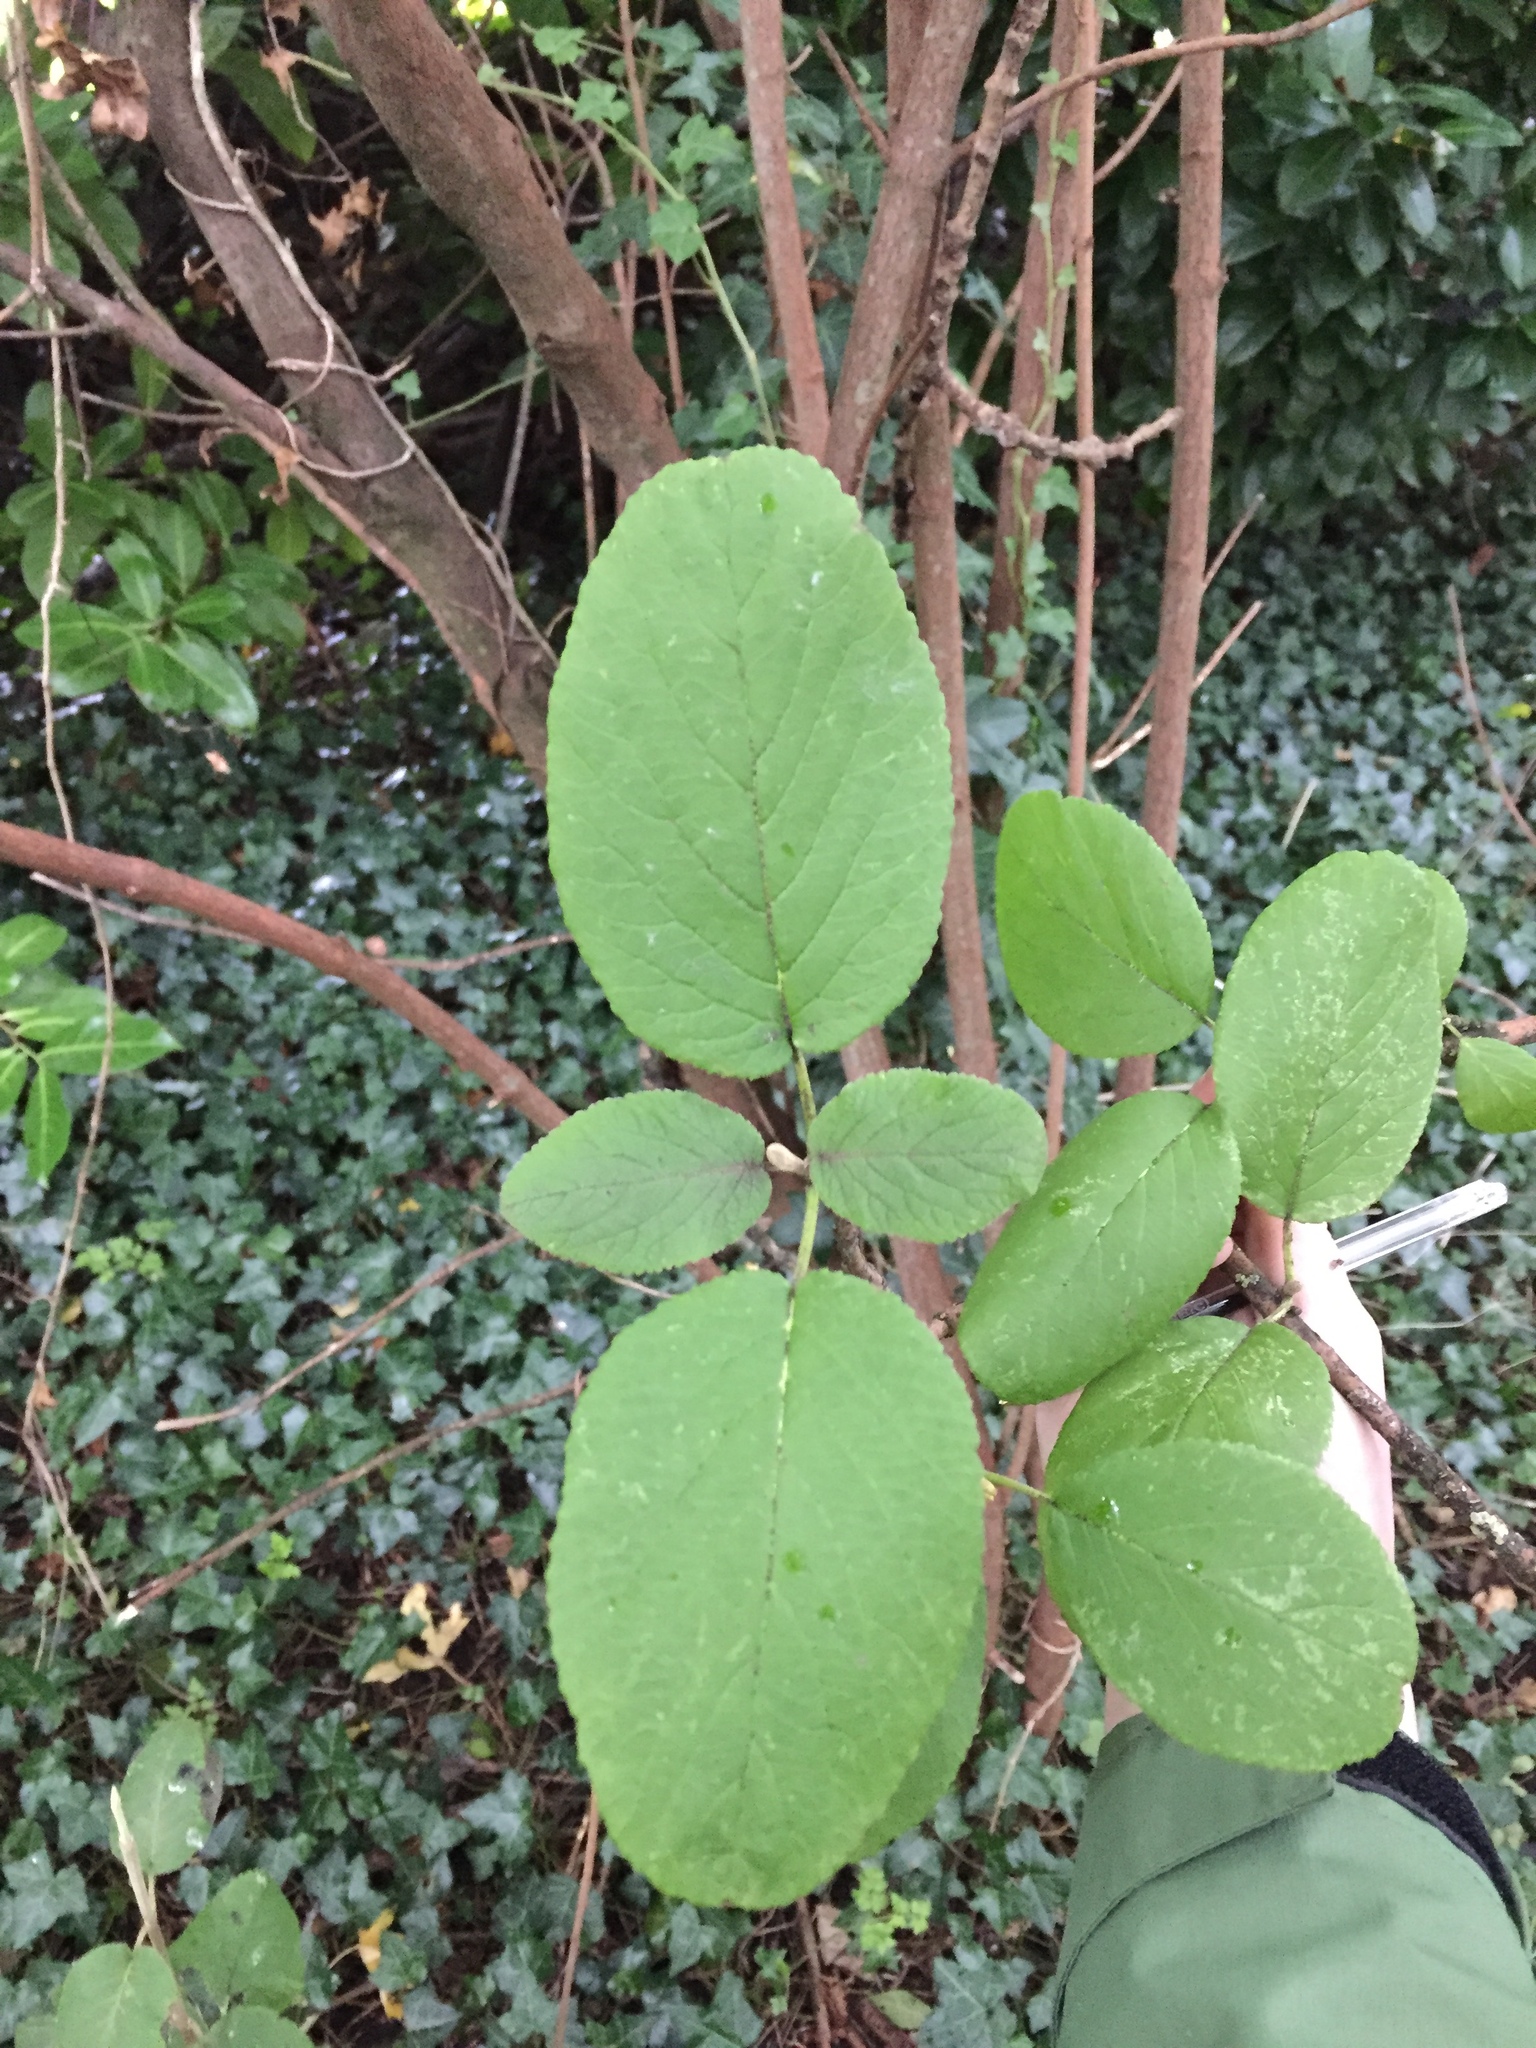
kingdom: Plantae
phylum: Tracheophyta
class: Magnoliopsida
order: Dipsacales
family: Viburnaceae
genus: Viburnum
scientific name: Viburnum lantana
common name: Wayfaring tree
